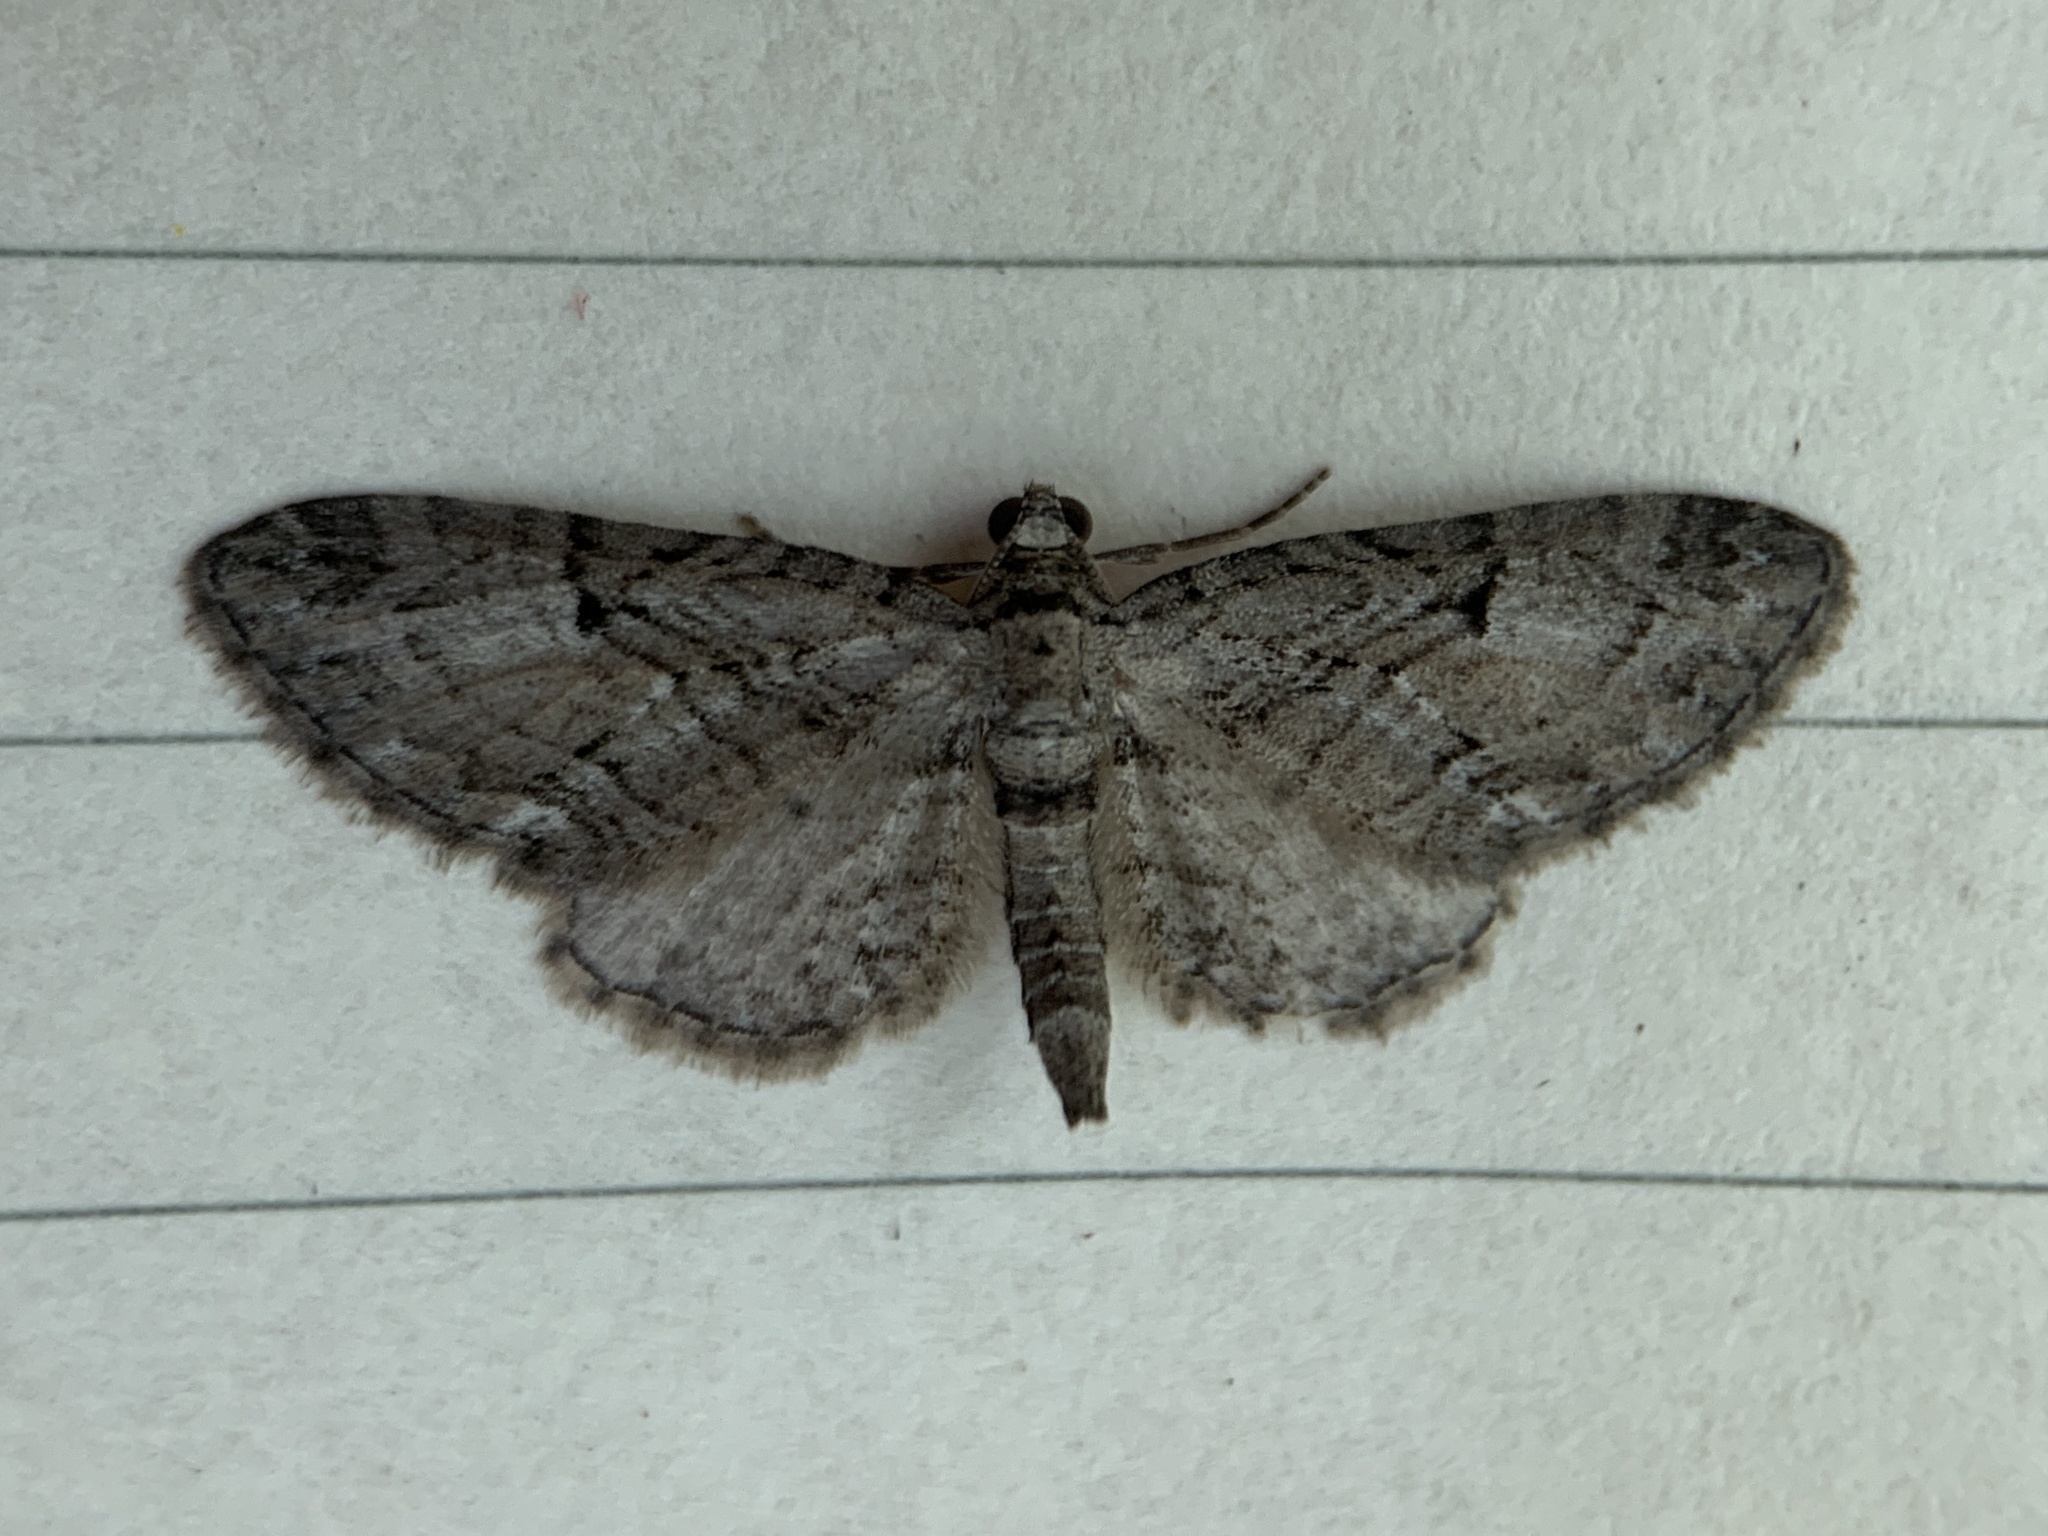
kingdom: Animalia
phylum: Arthropoda
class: Insecta
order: Lepidoptera
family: Geometridae
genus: Eupithecia
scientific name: Eupithecia interruptofasciata
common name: Juniper looper moth
